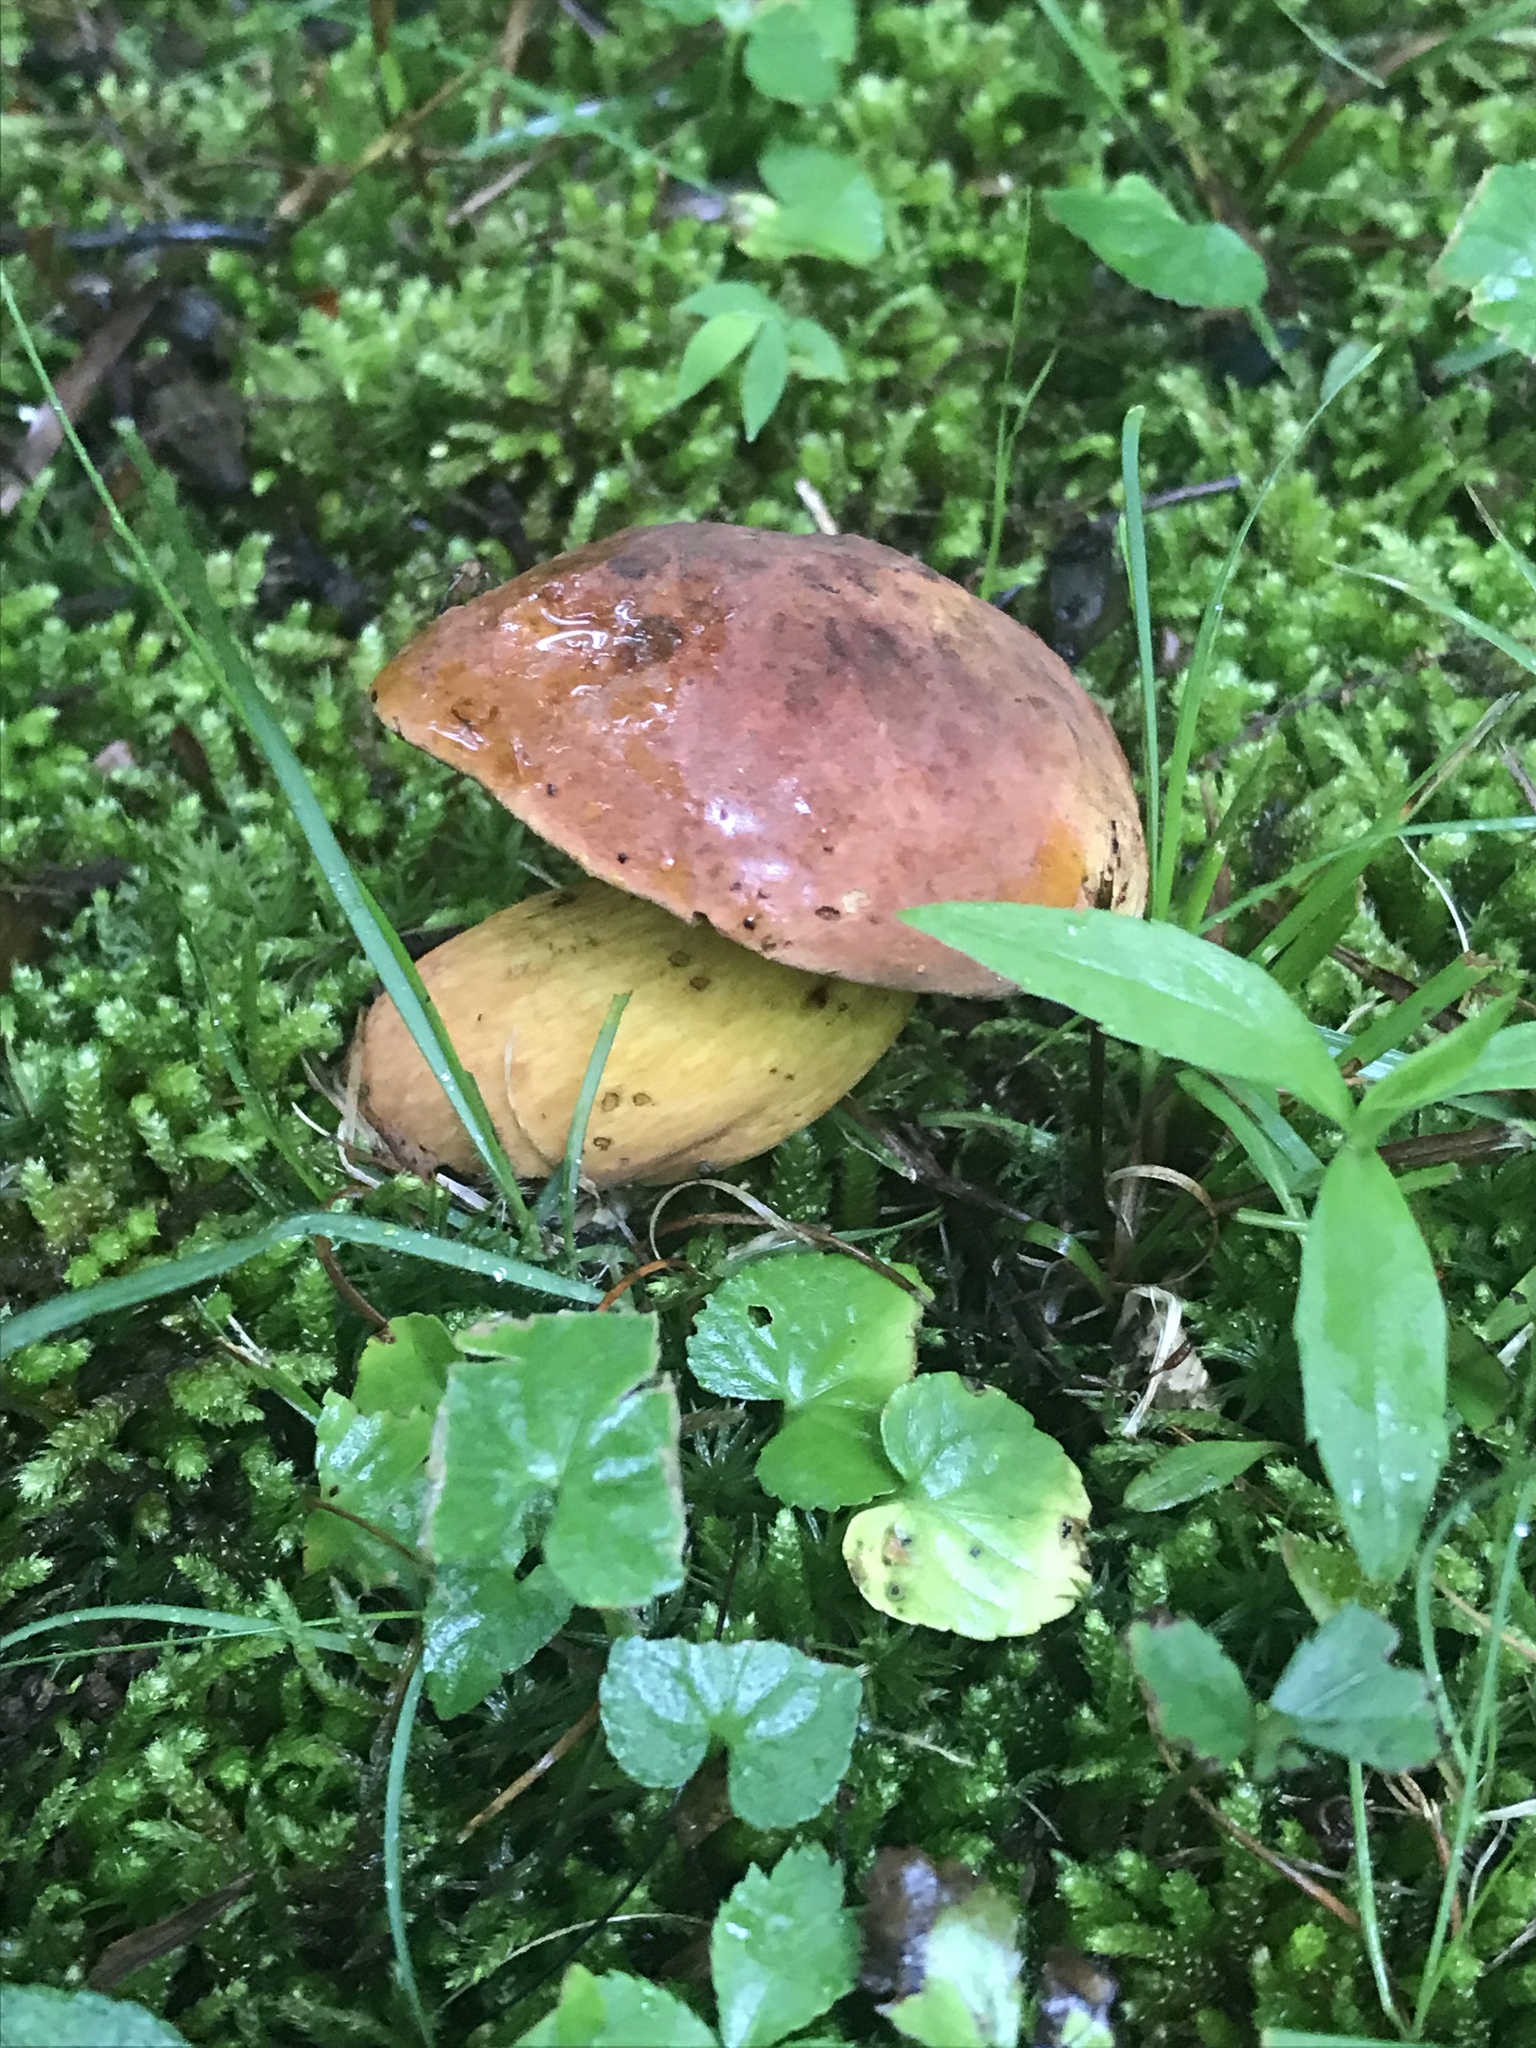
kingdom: Fungi
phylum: Basidiomycota
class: Agaricomycetes
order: Boletales
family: Boletaceae
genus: Boletus
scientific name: Boletus subluridellus
